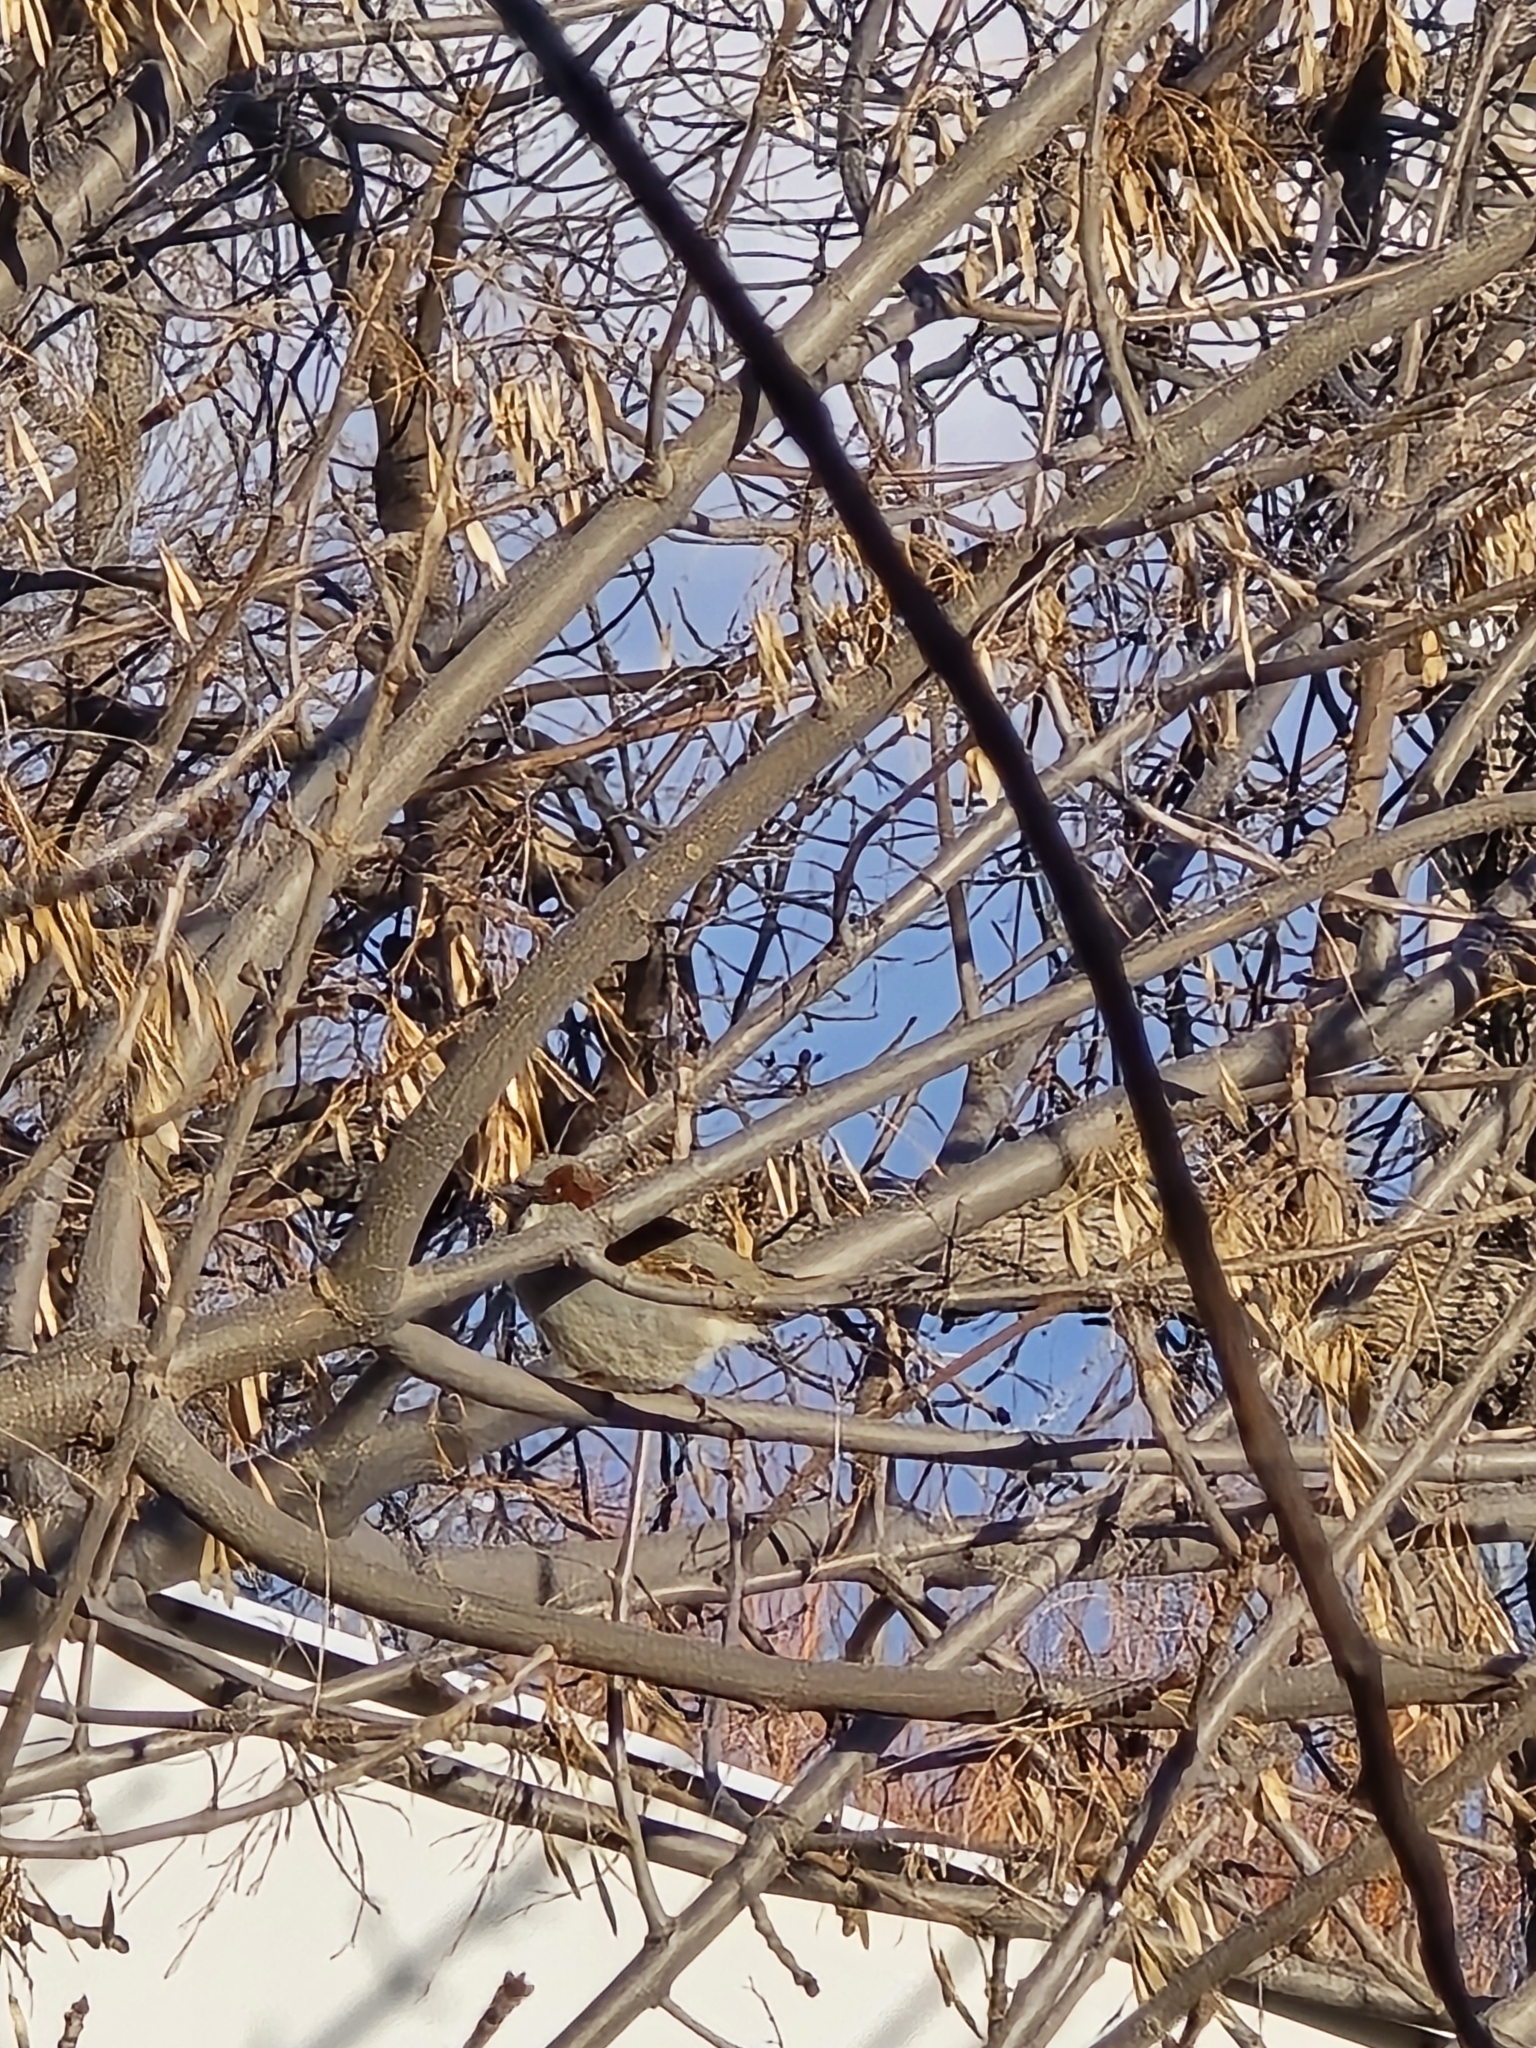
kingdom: Animalia
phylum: Chordata
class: Aves
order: Passeriformes
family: Passeridae
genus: Passer
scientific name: Passer domesticus
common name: House sparrow
